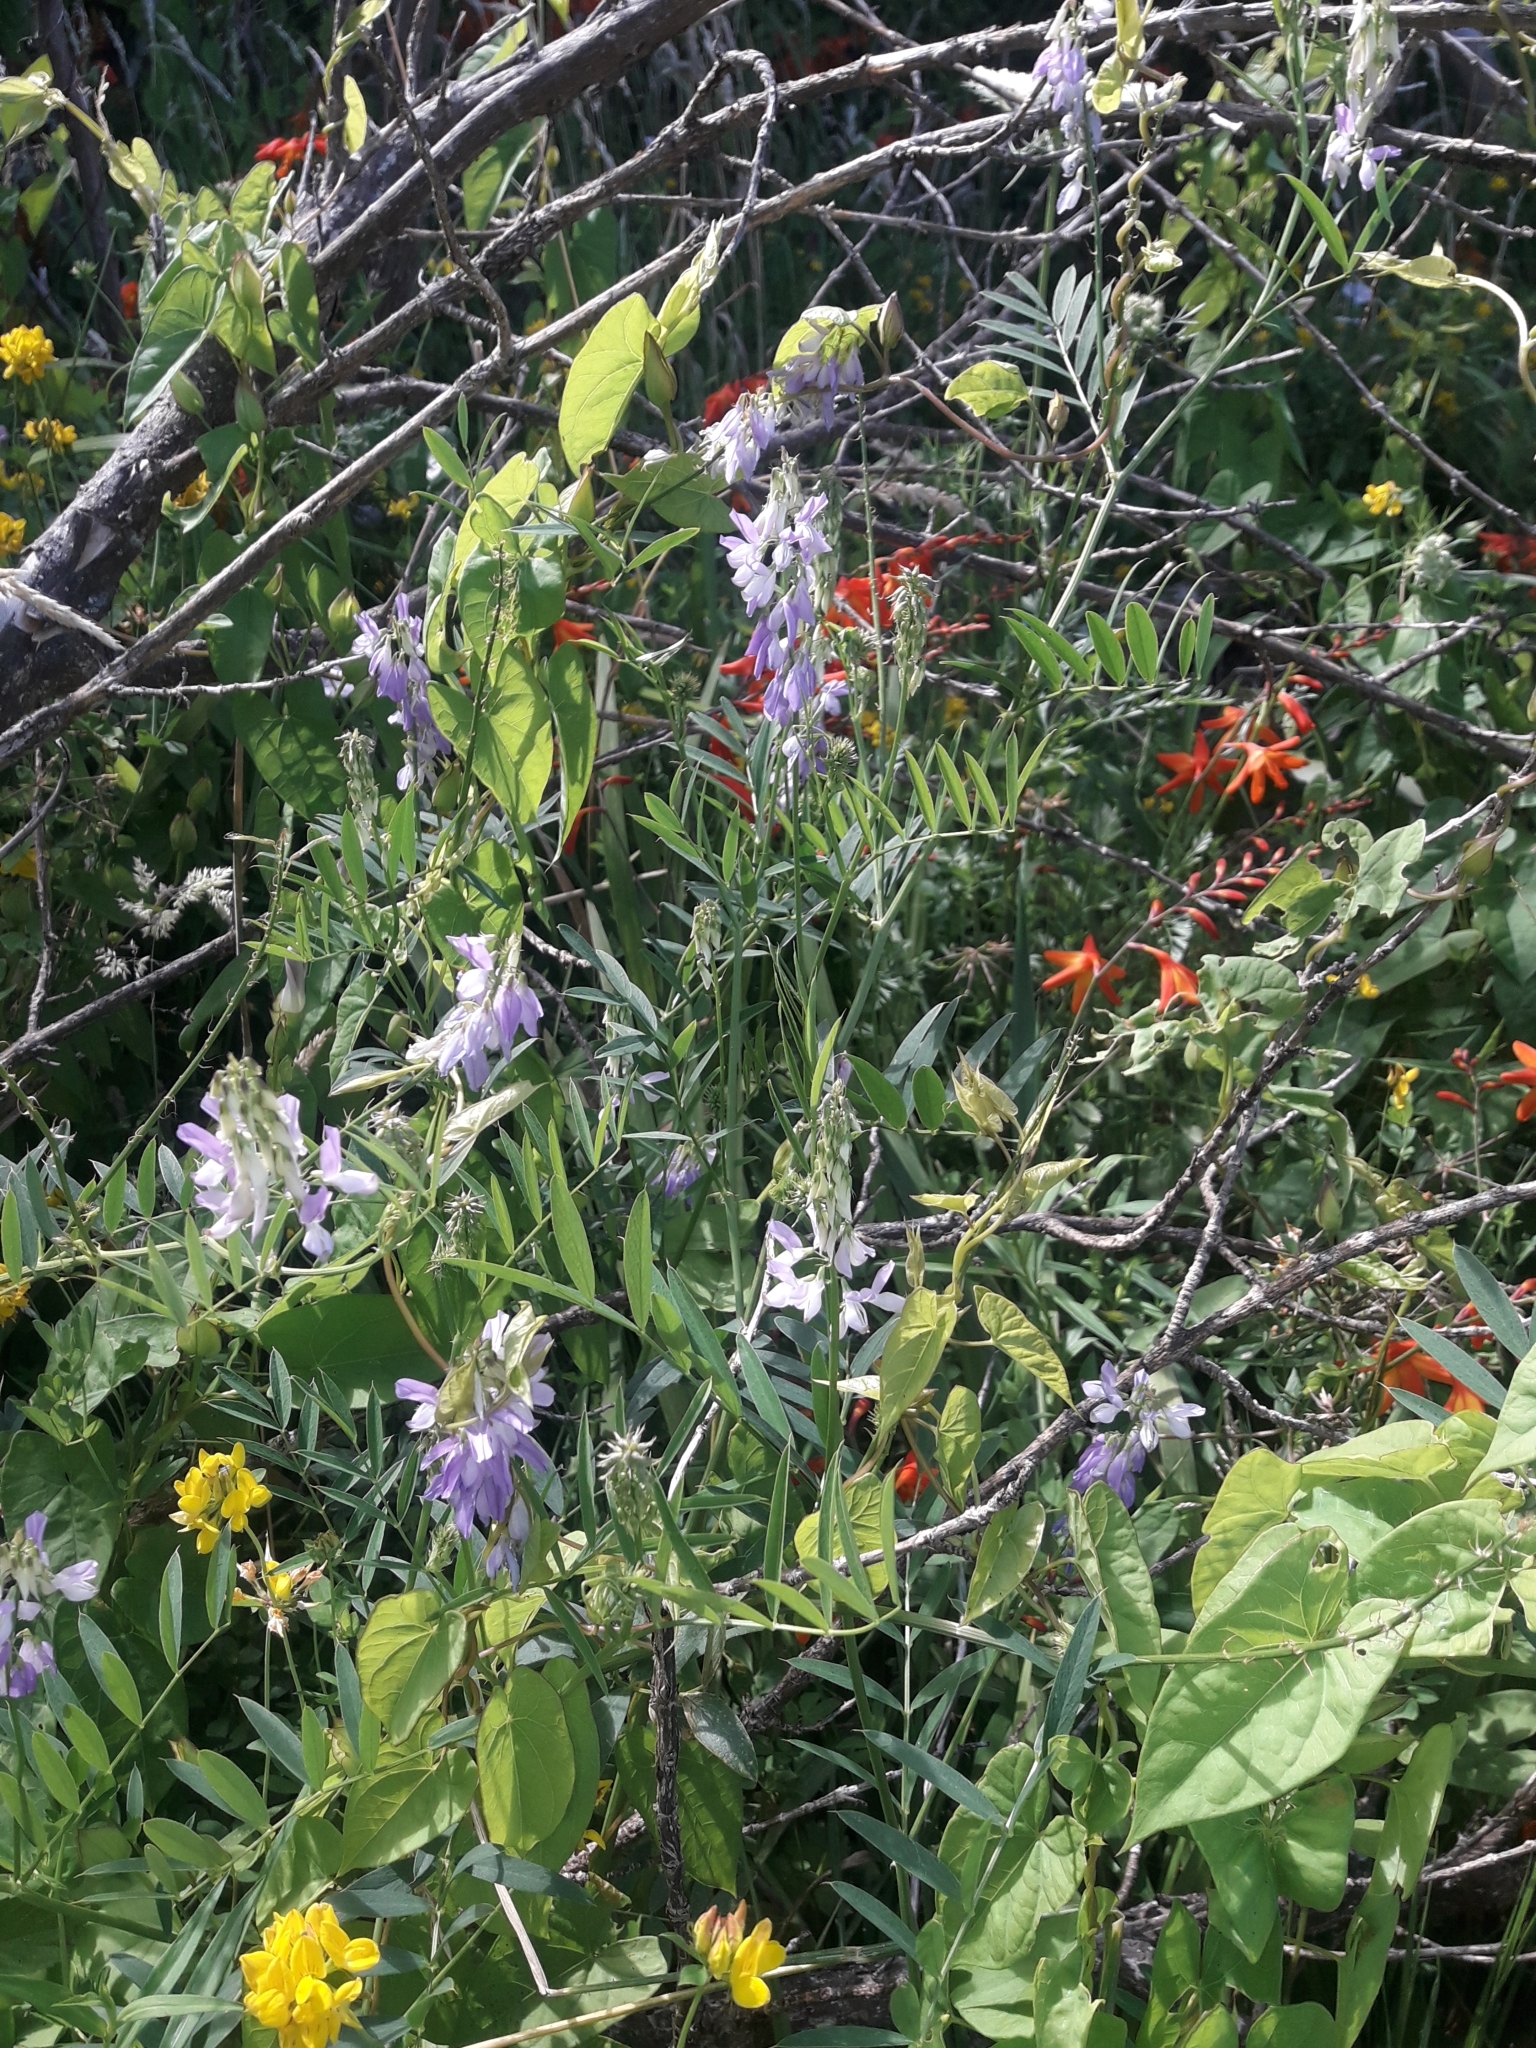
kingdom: Plantae
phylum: Tracheophyta
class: Magnoliopsida
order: Fabales
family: Fabaceae
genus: Galega
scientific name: Galega officinalis
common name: Goat's-rue
